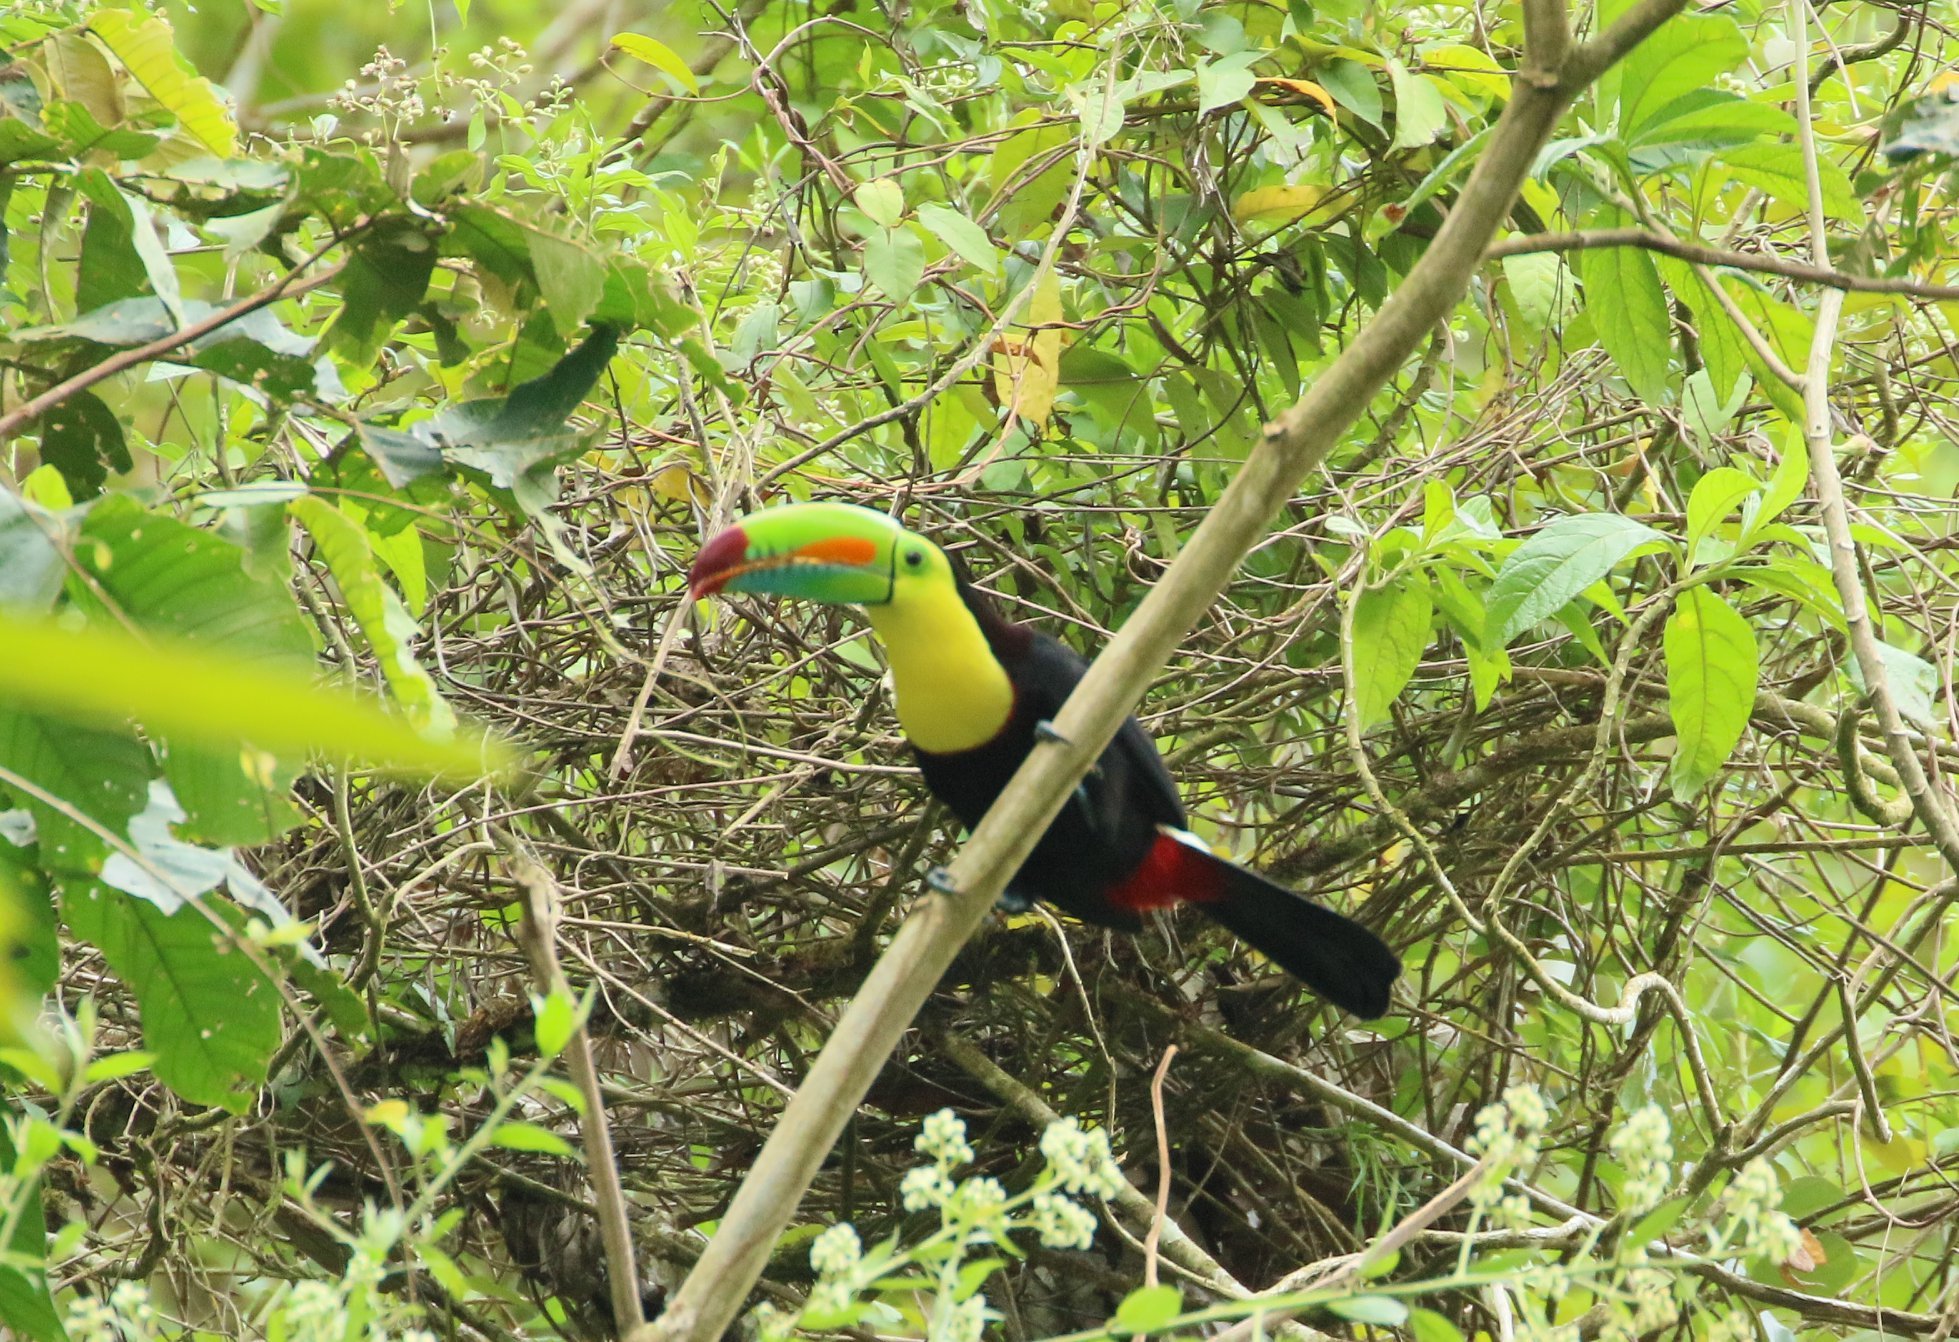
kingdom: Animalia
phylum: Chordata
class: Aves
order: Piciformes
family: Ramphastidae
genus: Ramphastos
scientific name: Ramphastos sulfuratus
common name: Keel-billed toucan
